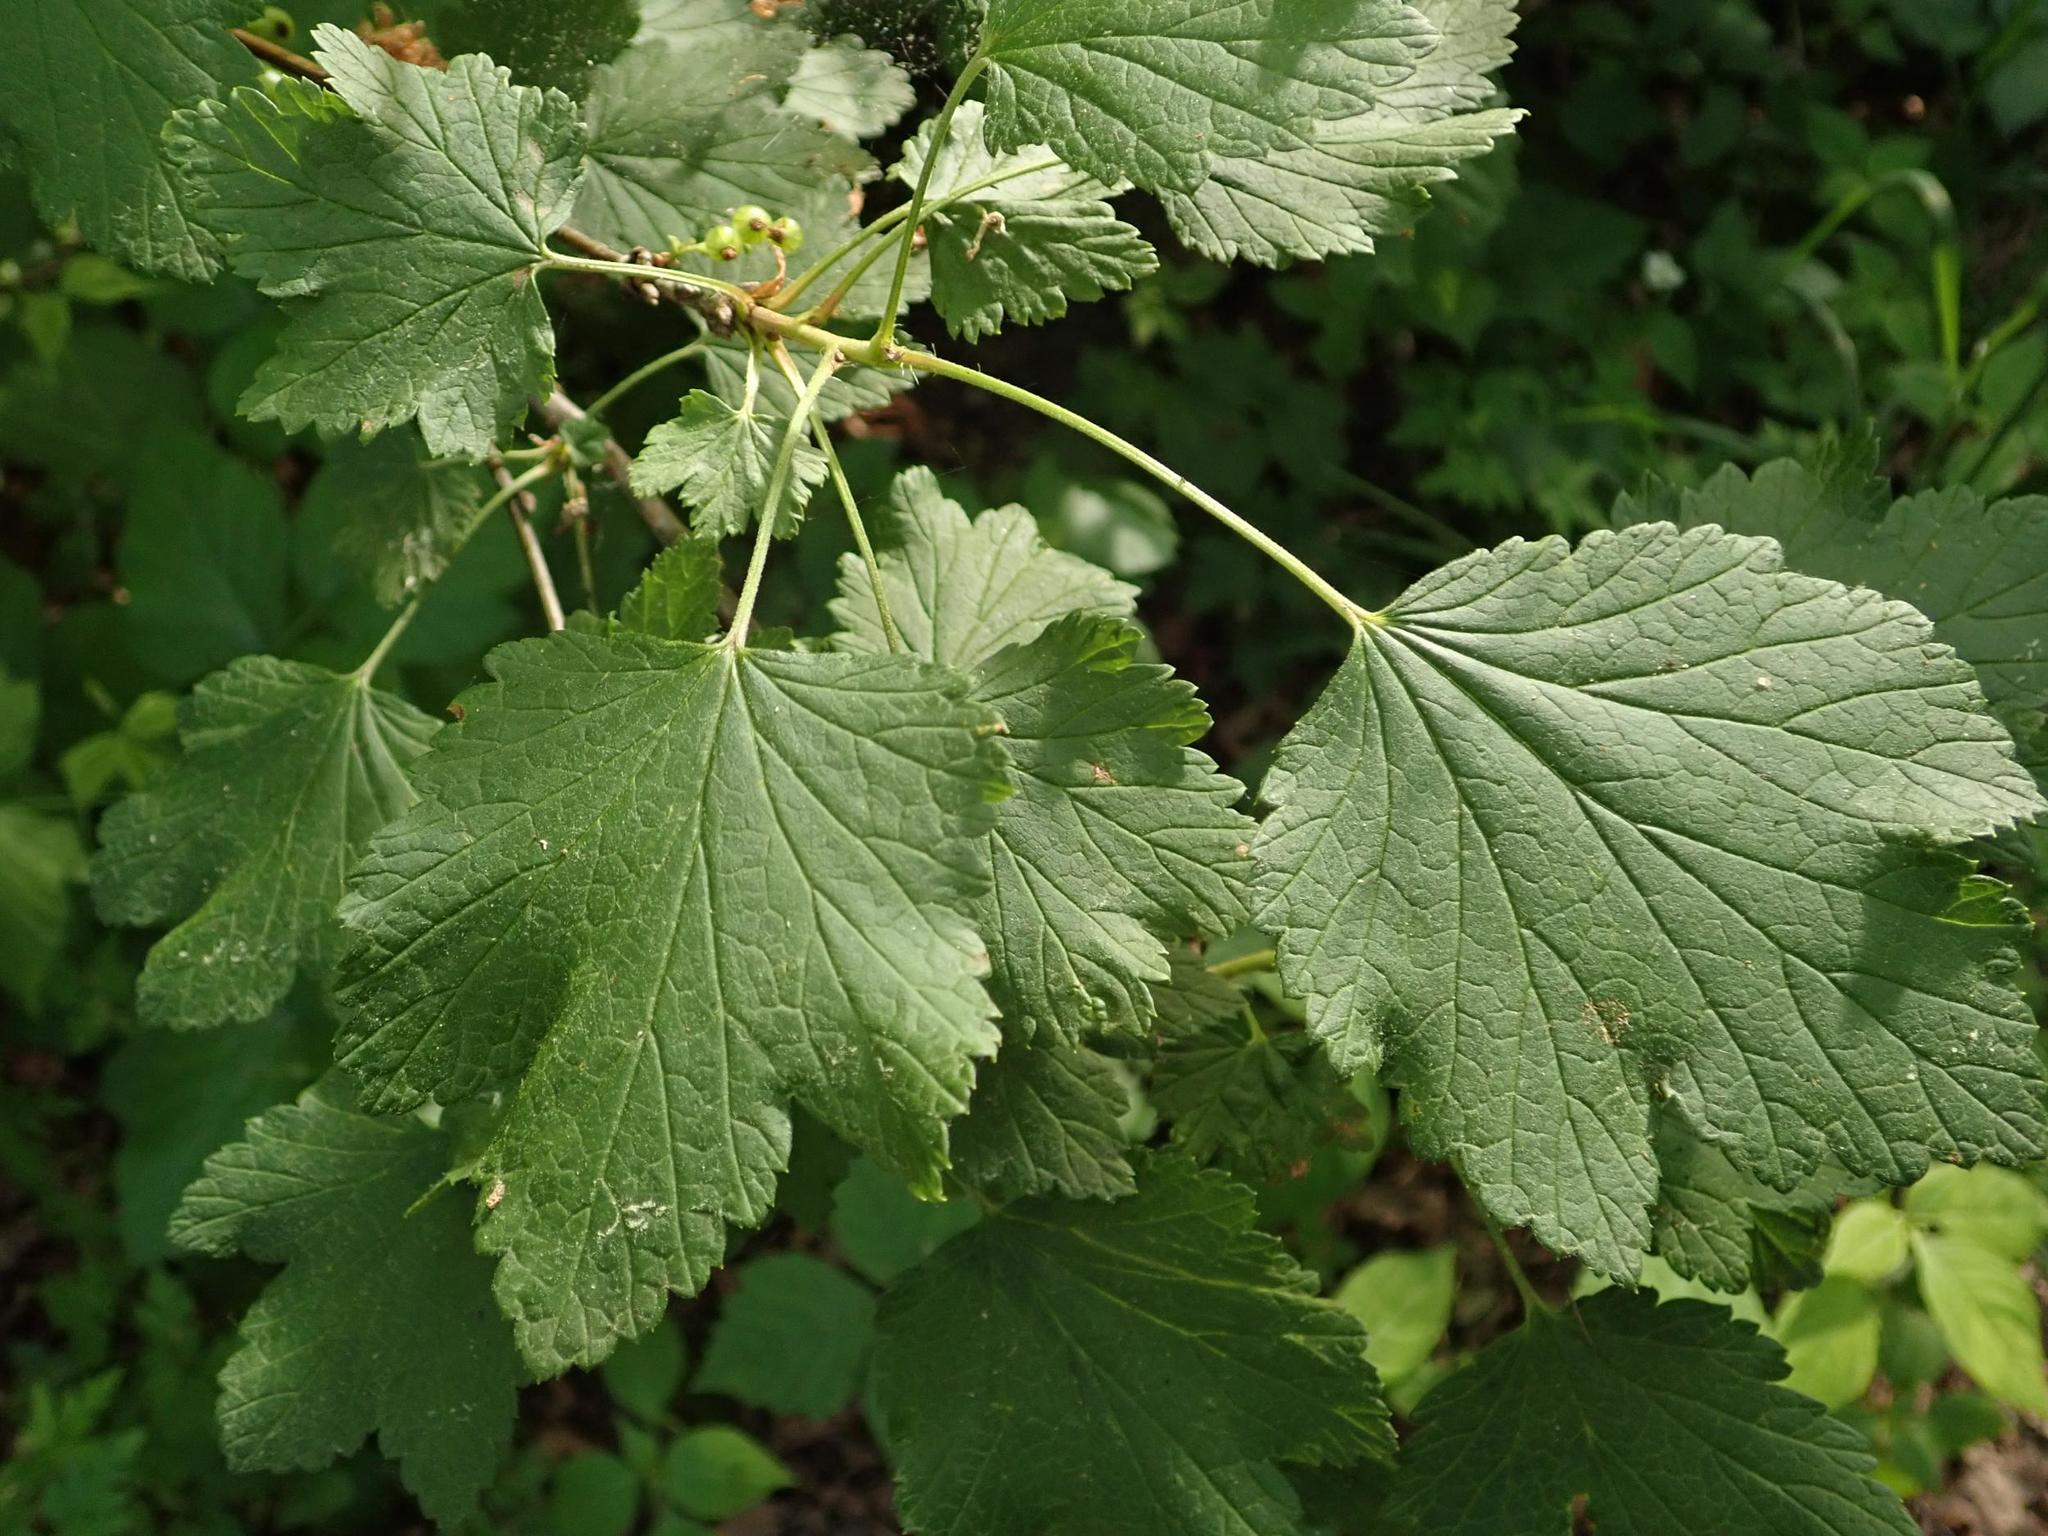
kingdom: Plantae
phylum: Tracheophyta
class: Magnoliopsida
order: Saxifragales
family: Grossulariaceae
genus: Ribes
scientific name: Ribes rubrum
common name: Red currant
